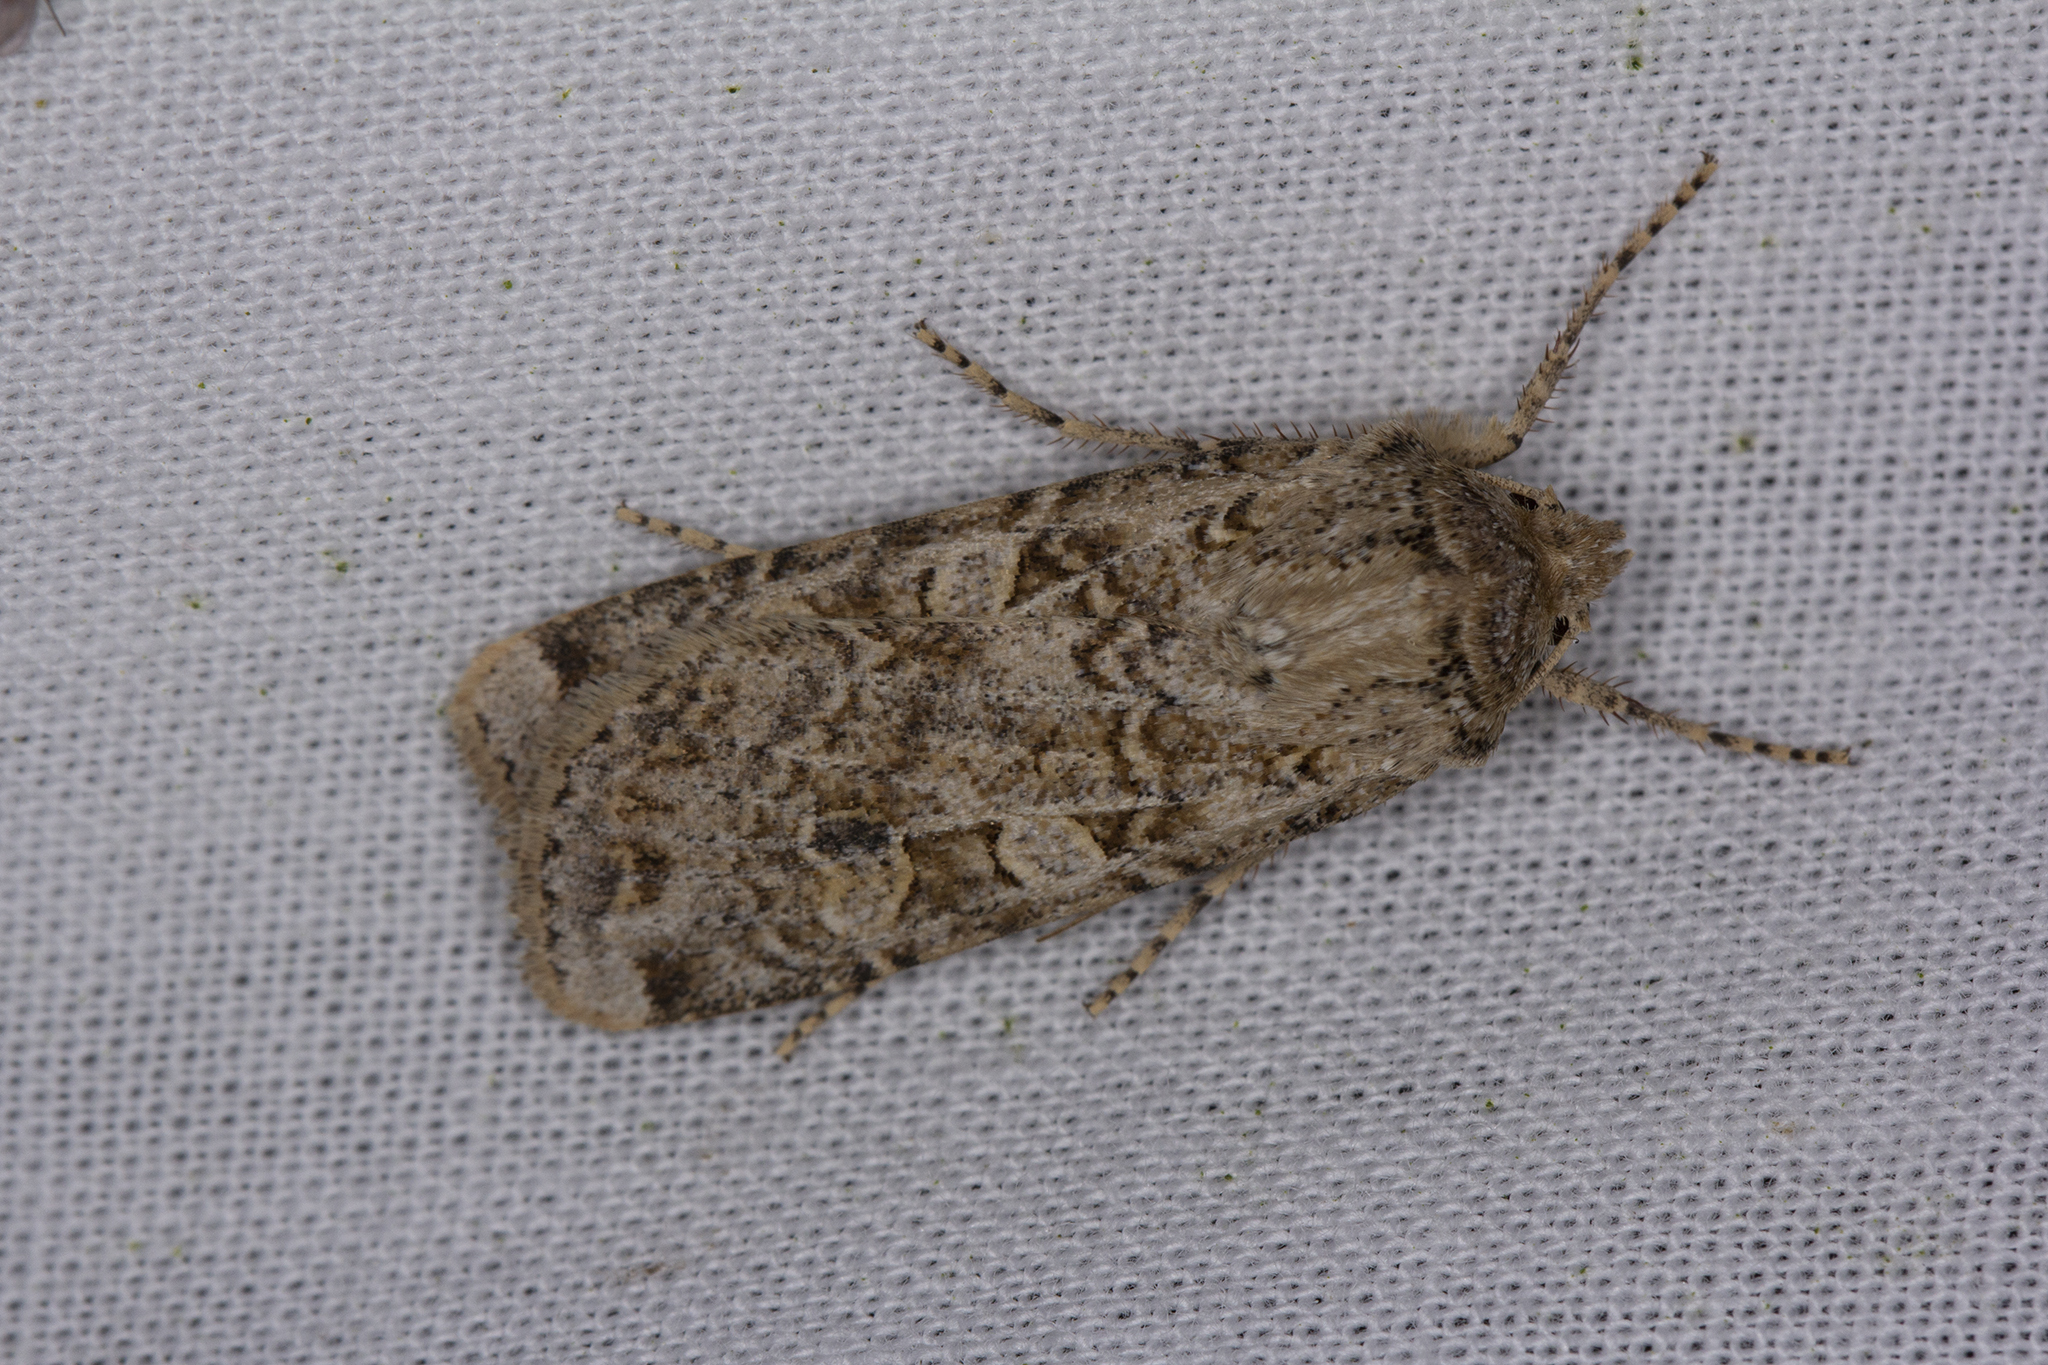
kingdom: Animalia
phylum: Arthropoda
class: Insecta
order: Lepidoptera
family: Noctuidae
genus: Euxoa
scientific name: Euxoa cursoria
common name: Coast dart
